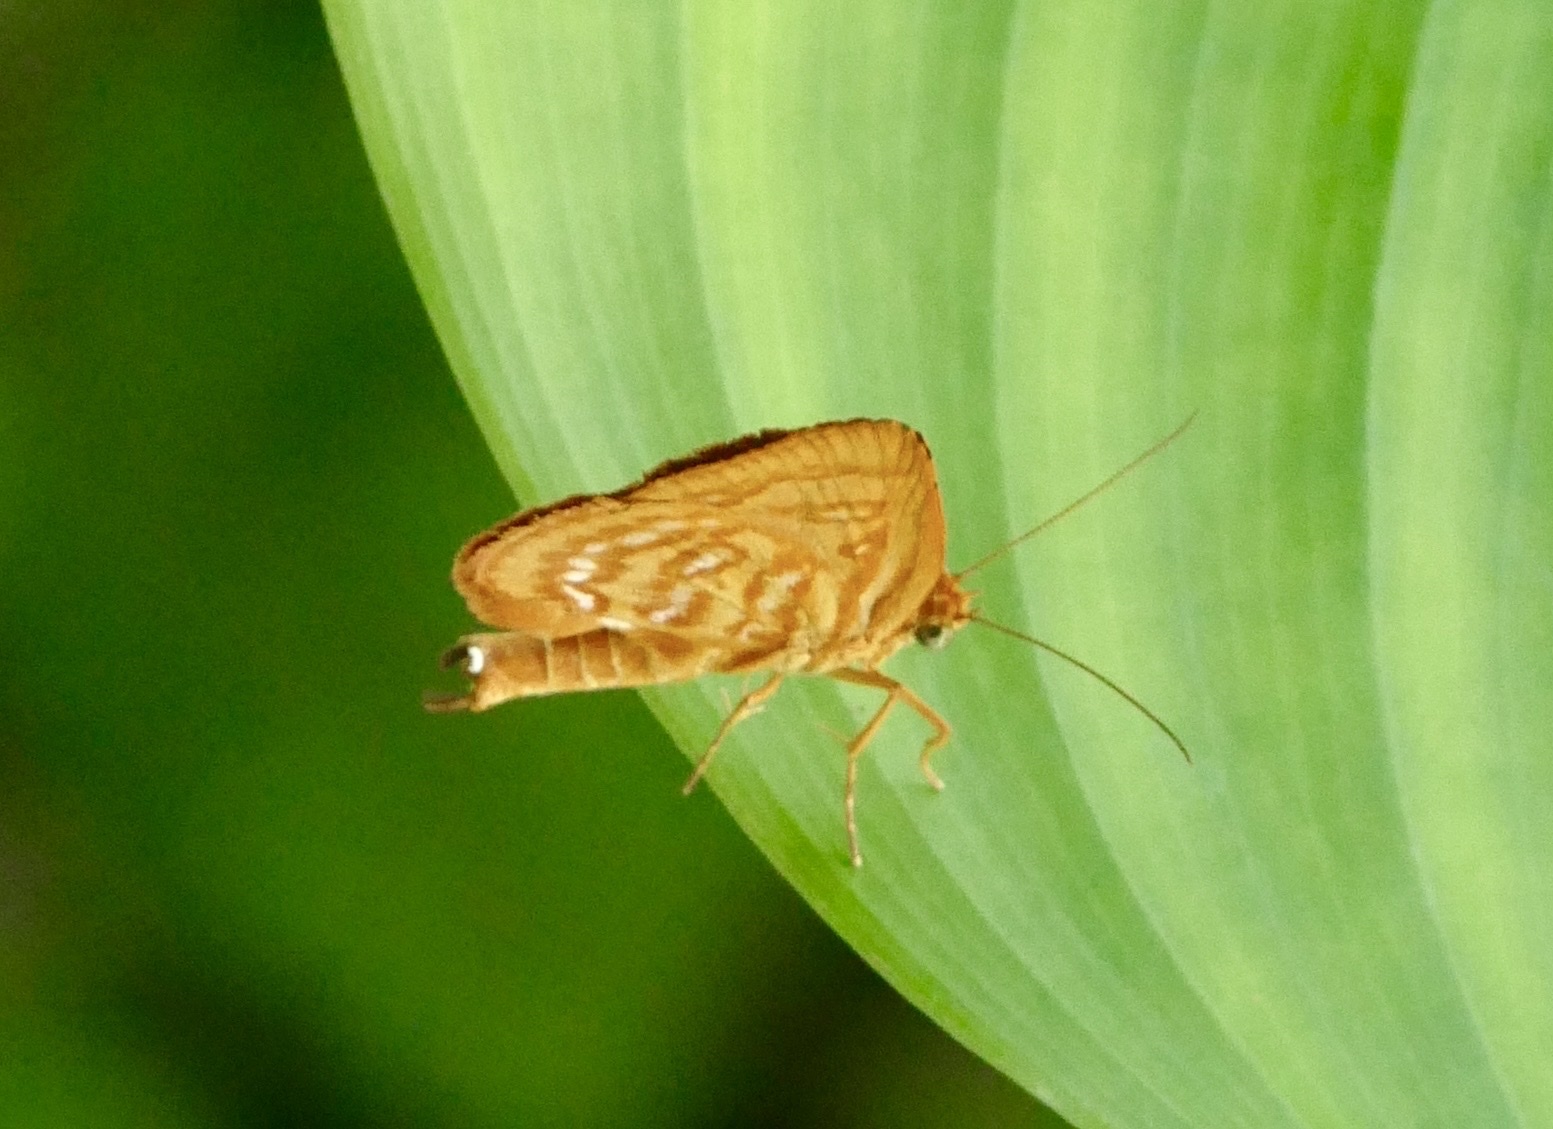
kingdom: Animalia
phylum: Arthropoda
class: Insecta
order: Lepidoptera
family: Callidulidae
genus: Comella
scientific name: Comella laetifica
